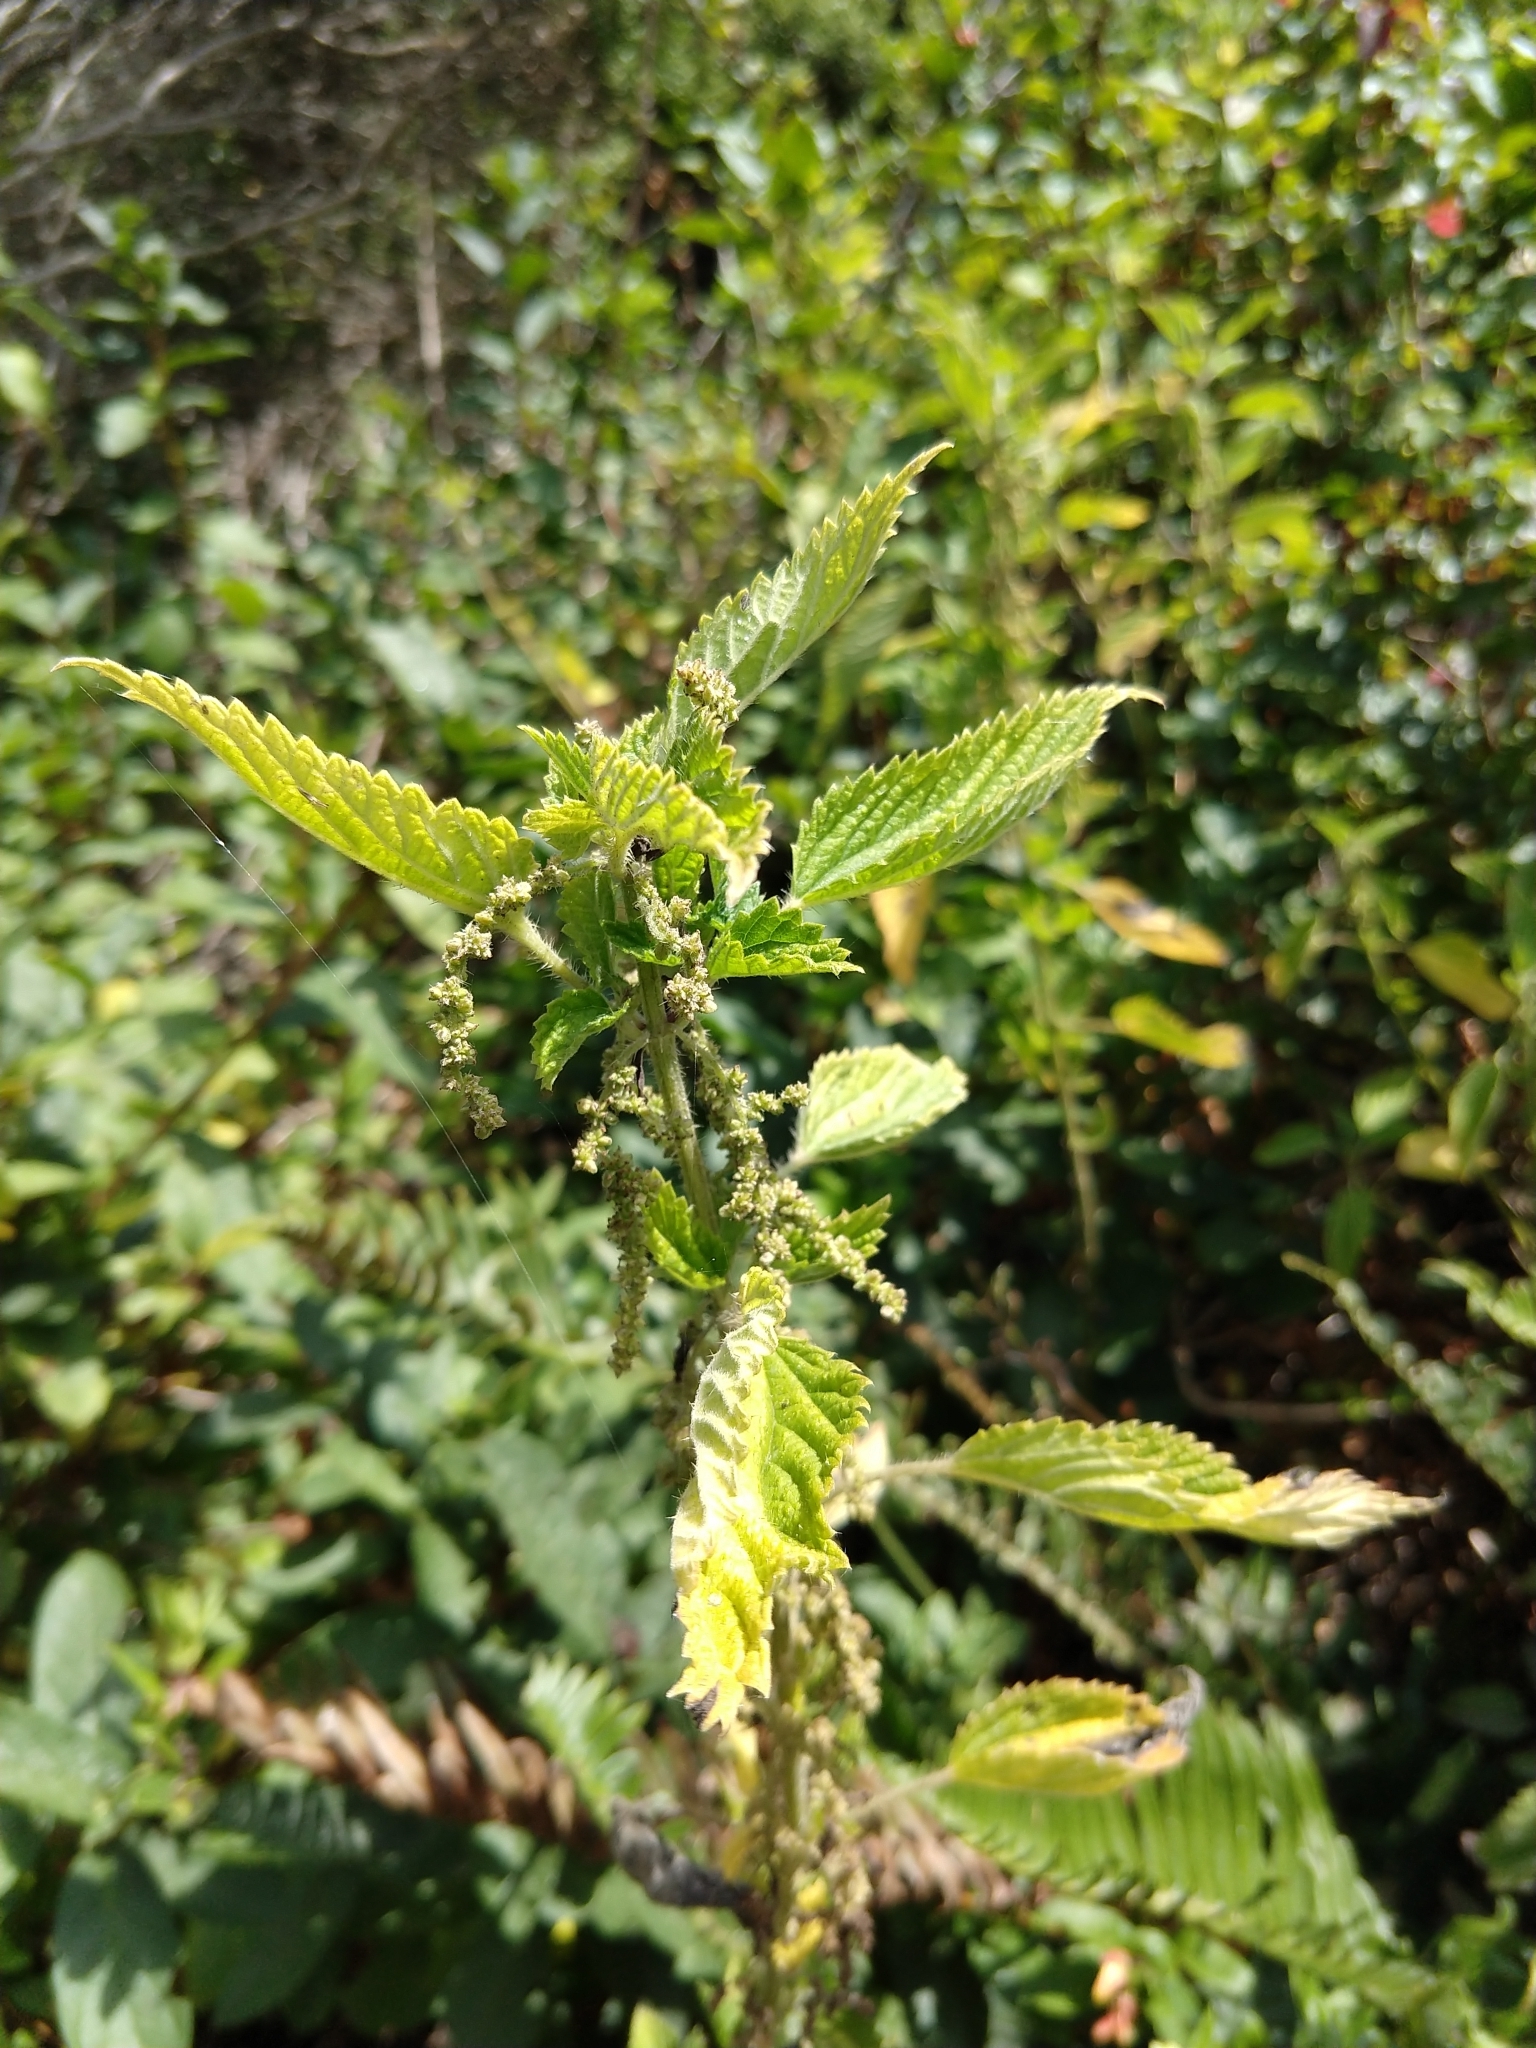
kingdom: Plantae
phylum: Tracheophyta
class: Magnoliopsida
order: Rosales
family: Urticaceae
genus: Urtica
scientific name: Urtica dioica
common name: Common nettle
